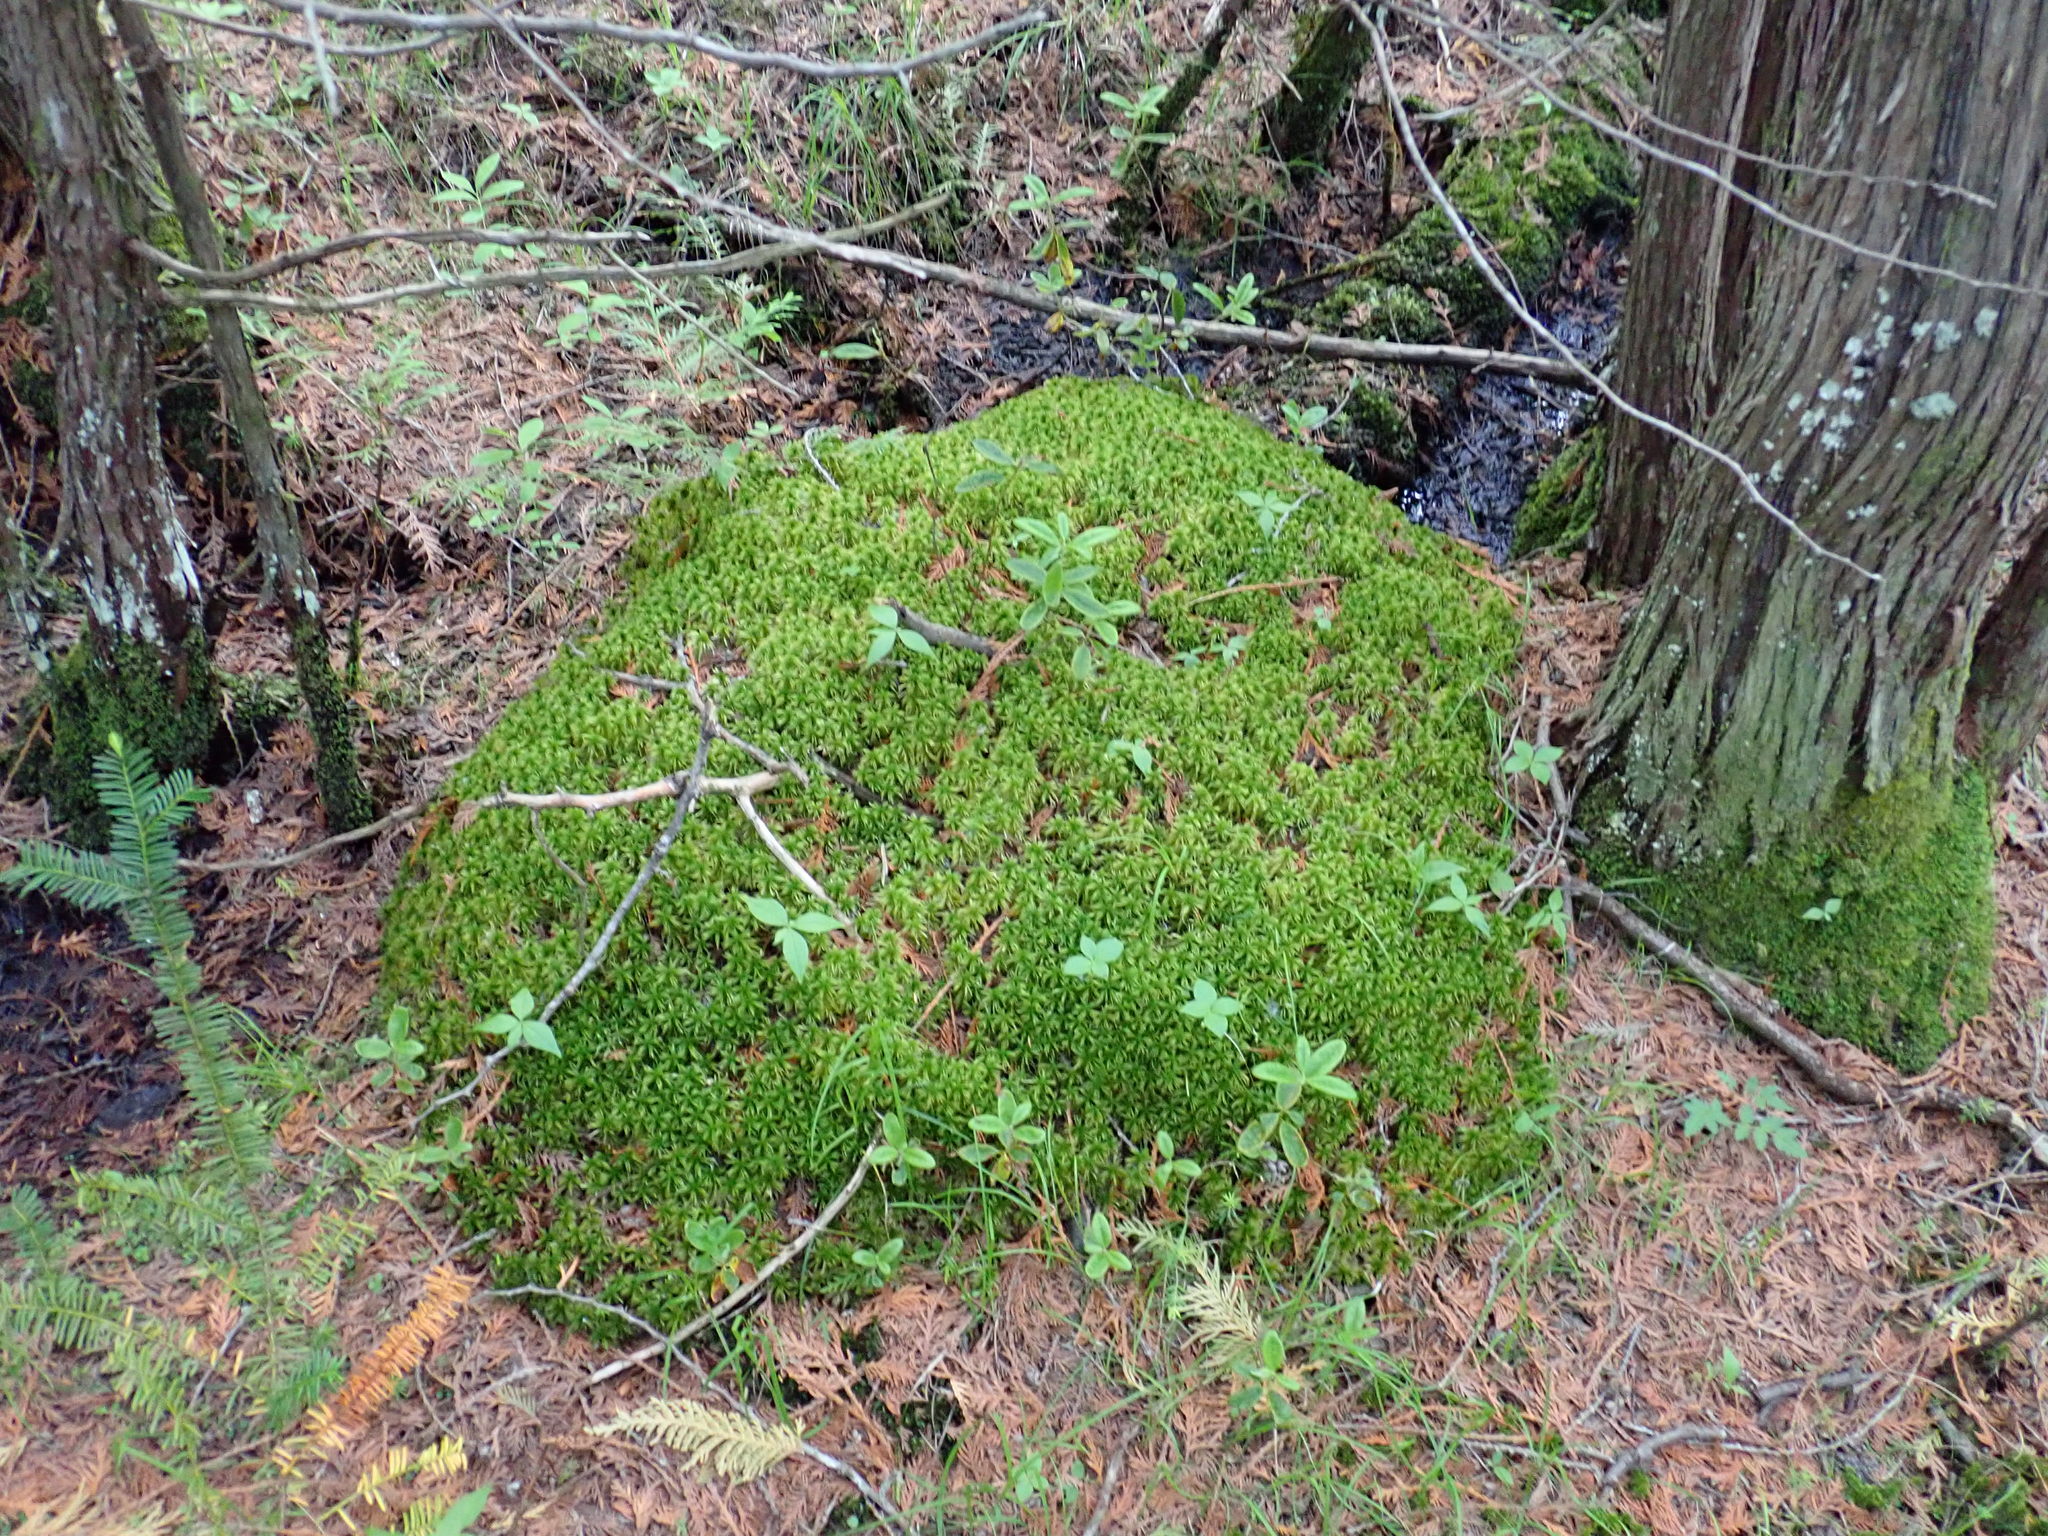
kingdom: Plantae
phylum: Bryophyta
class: Sphagnopsida
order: Sphagnales
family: Sphagnaceae
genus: Sphagnum
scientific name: Sphagnum girgensohnii
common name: Girgensohn's peat moss
